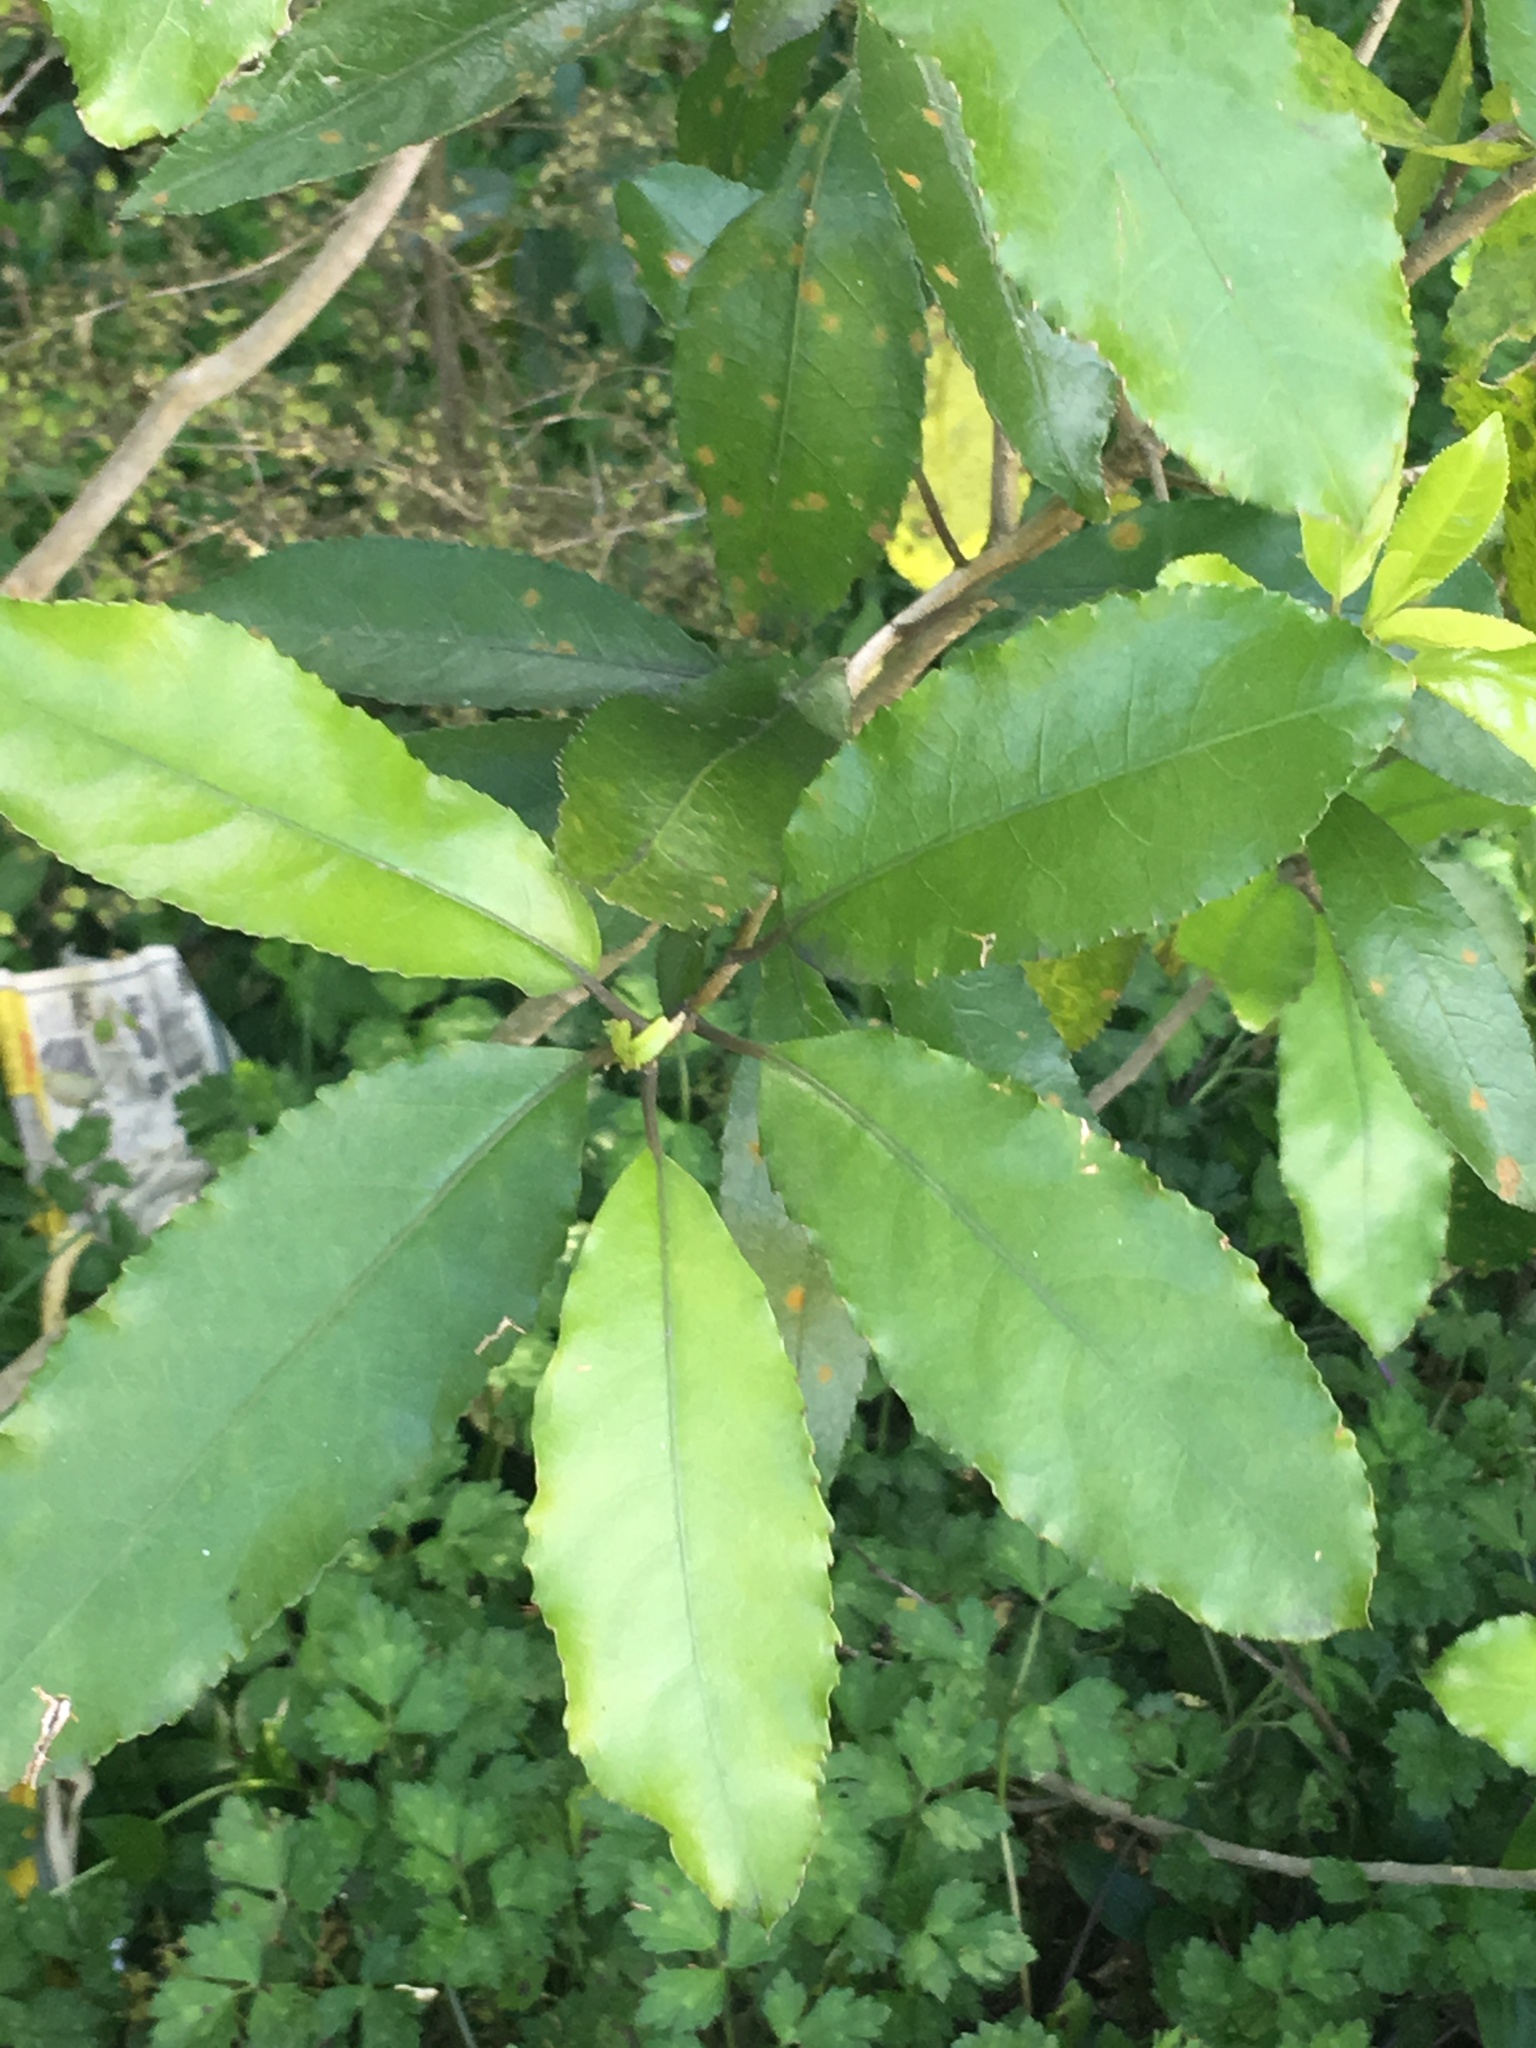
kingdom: Plantae
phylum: Tracheophyta
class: Magnoliopsida
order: Malpighiales
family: Violaceae
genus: Melicytus
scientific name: Melicytus ramiflorus
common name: Mahoe
